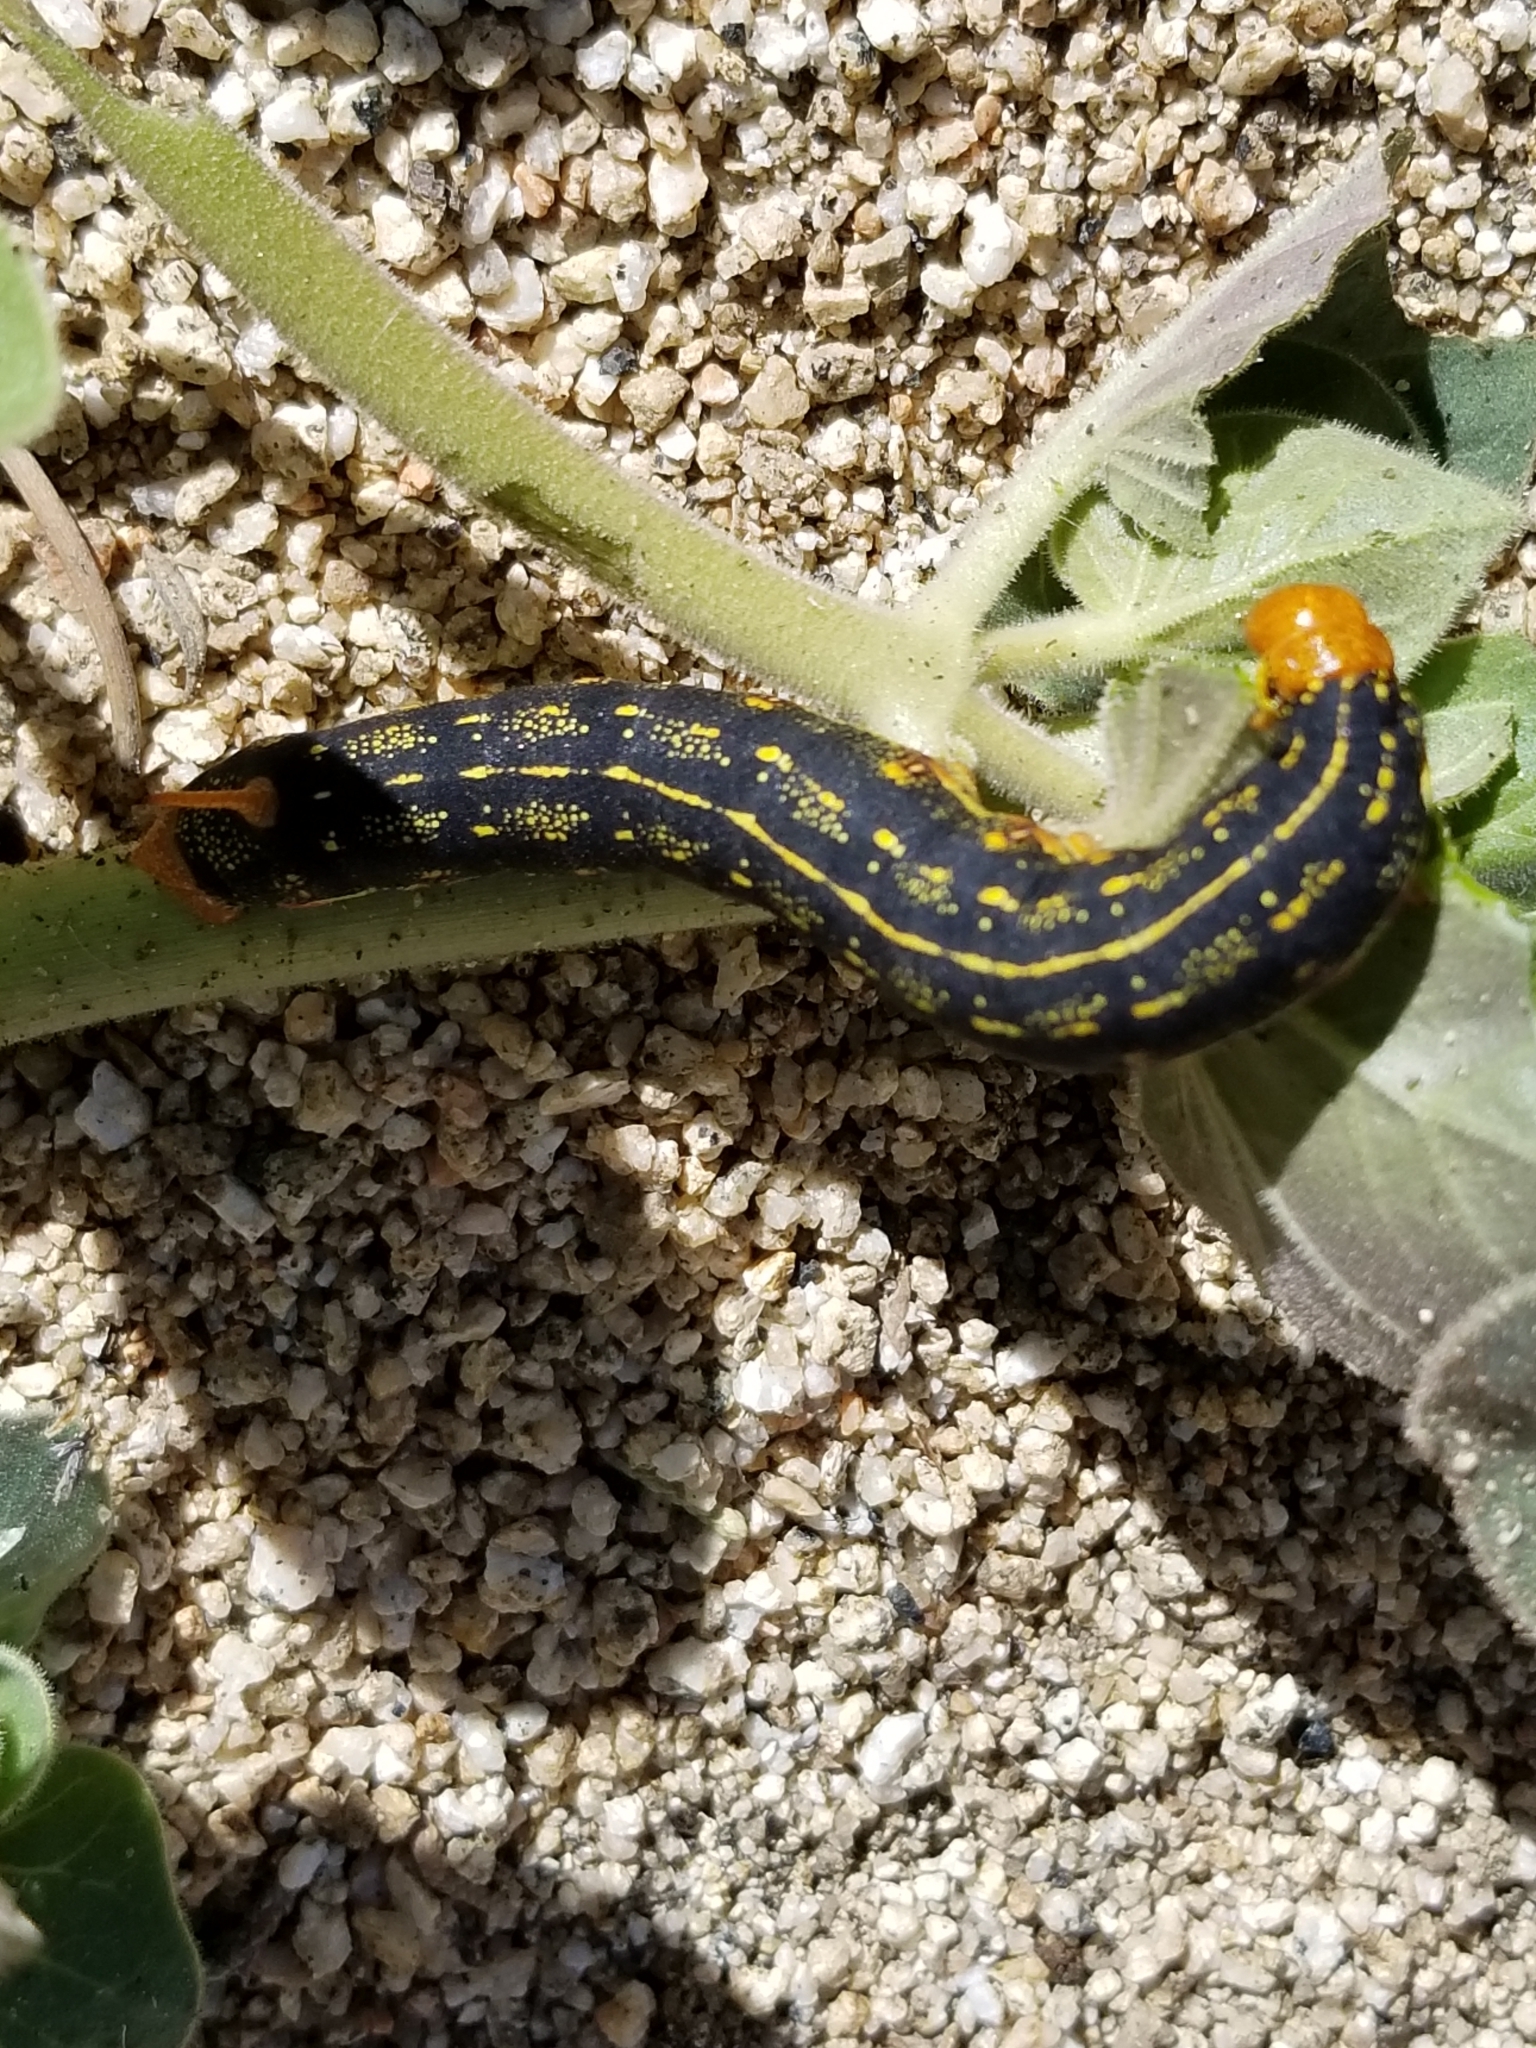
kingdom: Animalia
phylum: Arthropoda
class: Insecta
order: Lepidoptera
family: Sphingidae
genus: Hyles
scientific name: Hyles lineata
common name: White-lined sphinx
